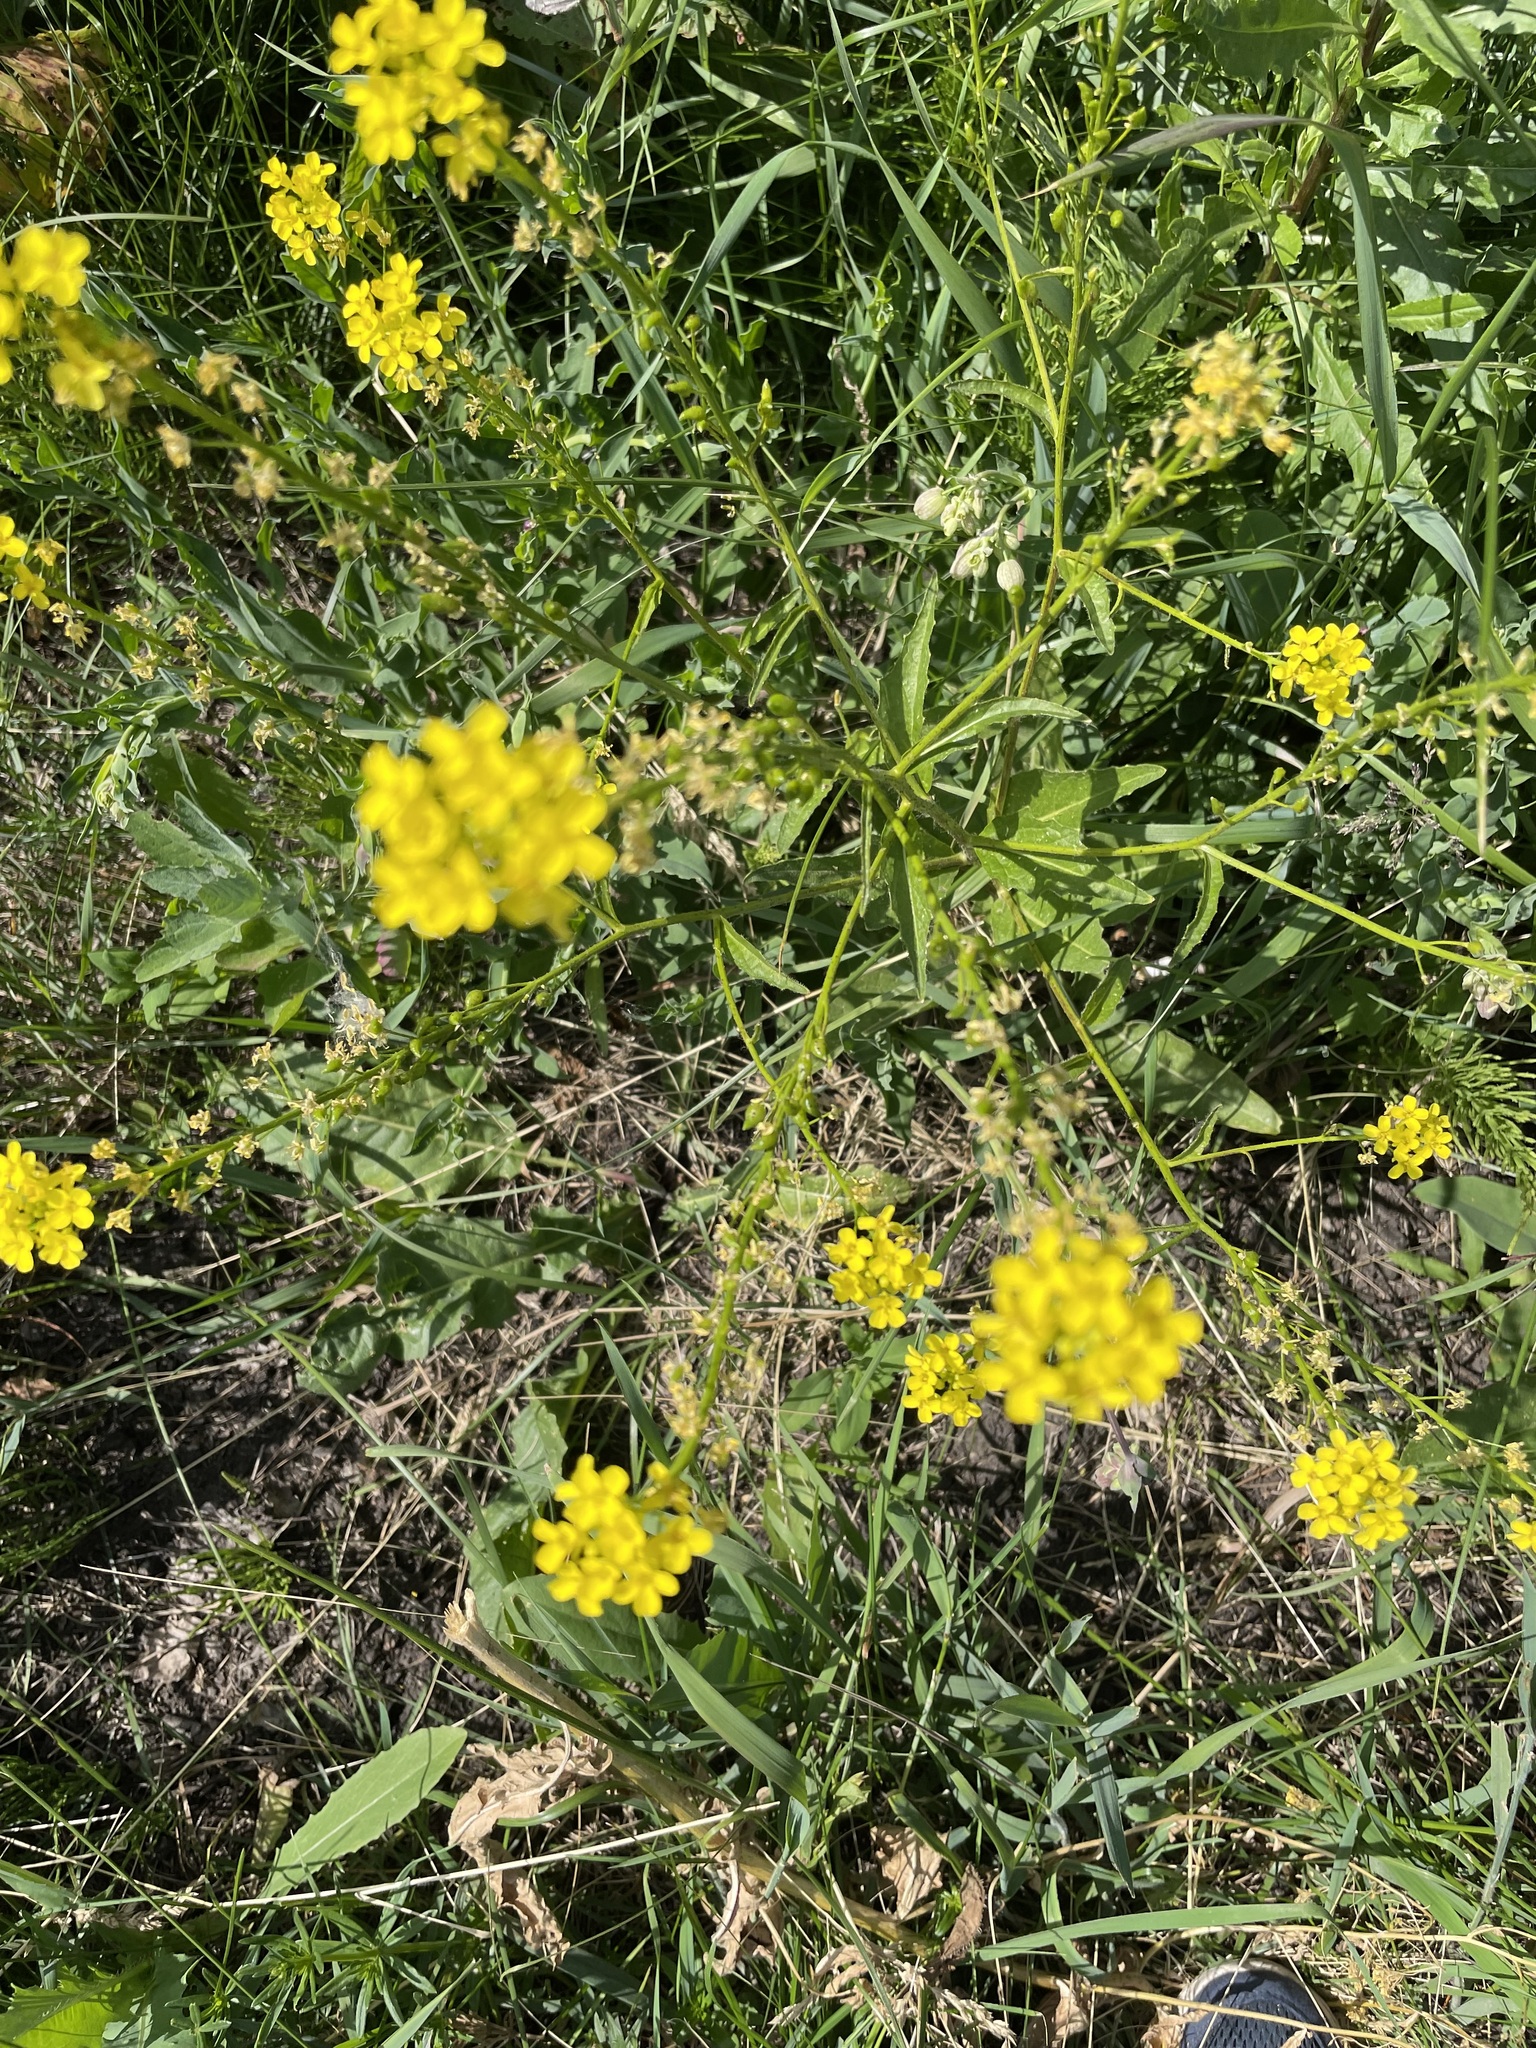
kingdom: Plantae
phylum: Tracheophyta
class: Magnoliopsida
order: Brassicales
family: Brassicaceae
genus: Bunias
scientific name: Bunias orientalis
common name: Warty-cabbage
